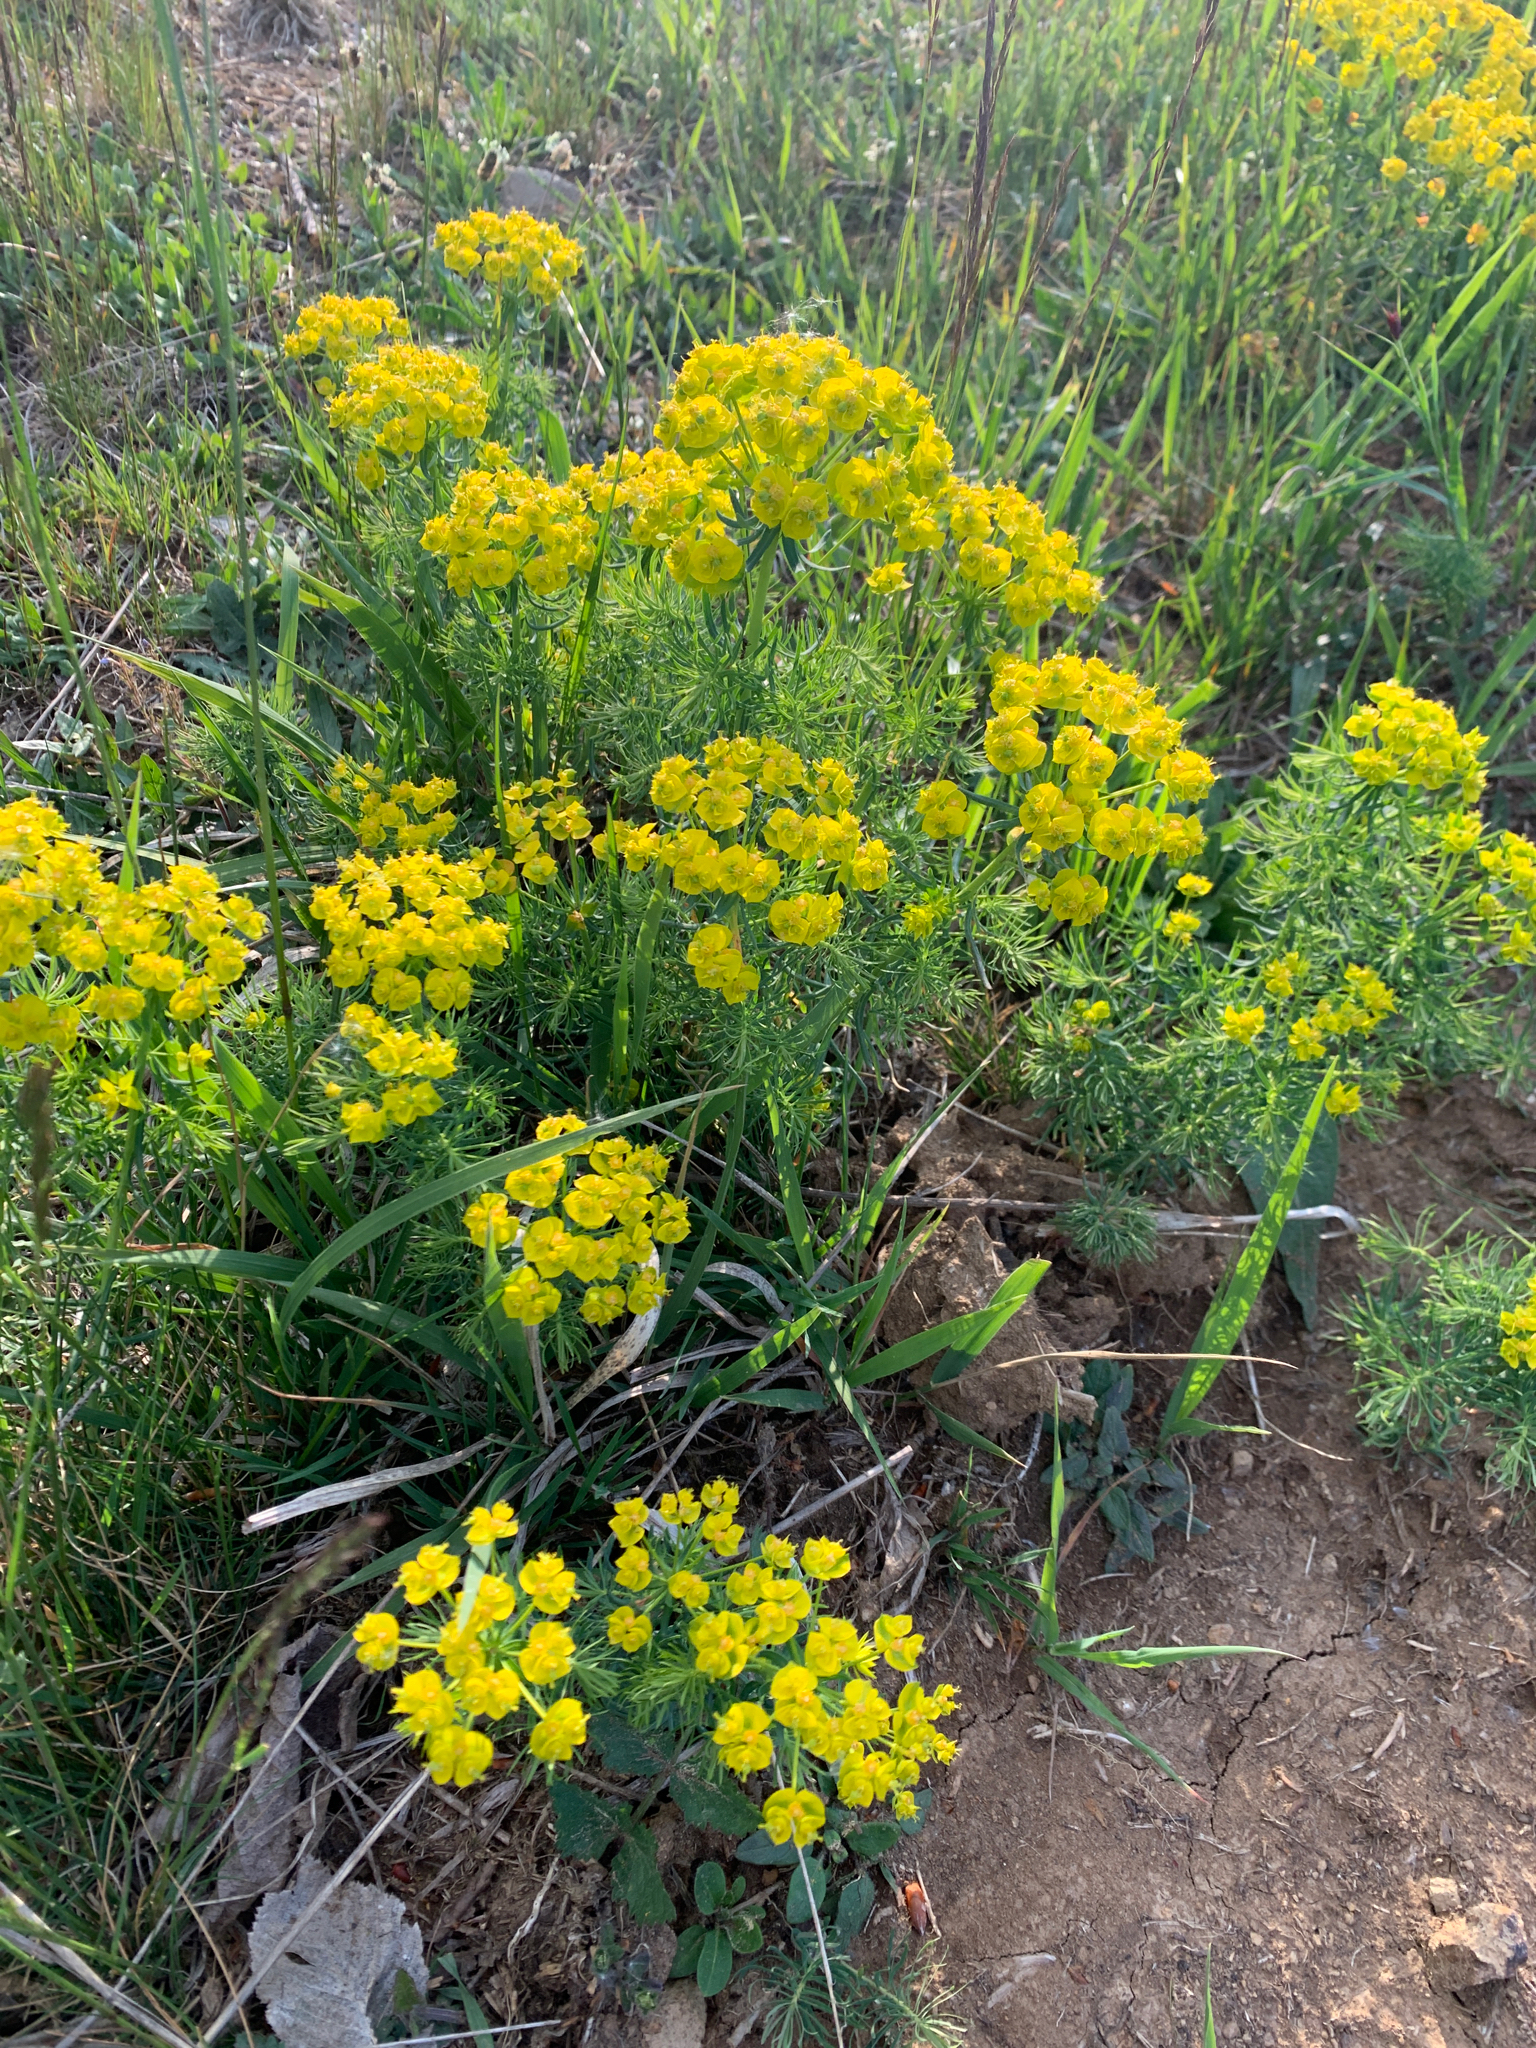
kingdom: Plantae
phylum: Tracheophyta
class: Magnoliopsida
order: Malpighiales
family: Euphorbiaceae
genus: Euphorbia
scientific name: Euphorbia cyparissias
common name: Cypress spurge
